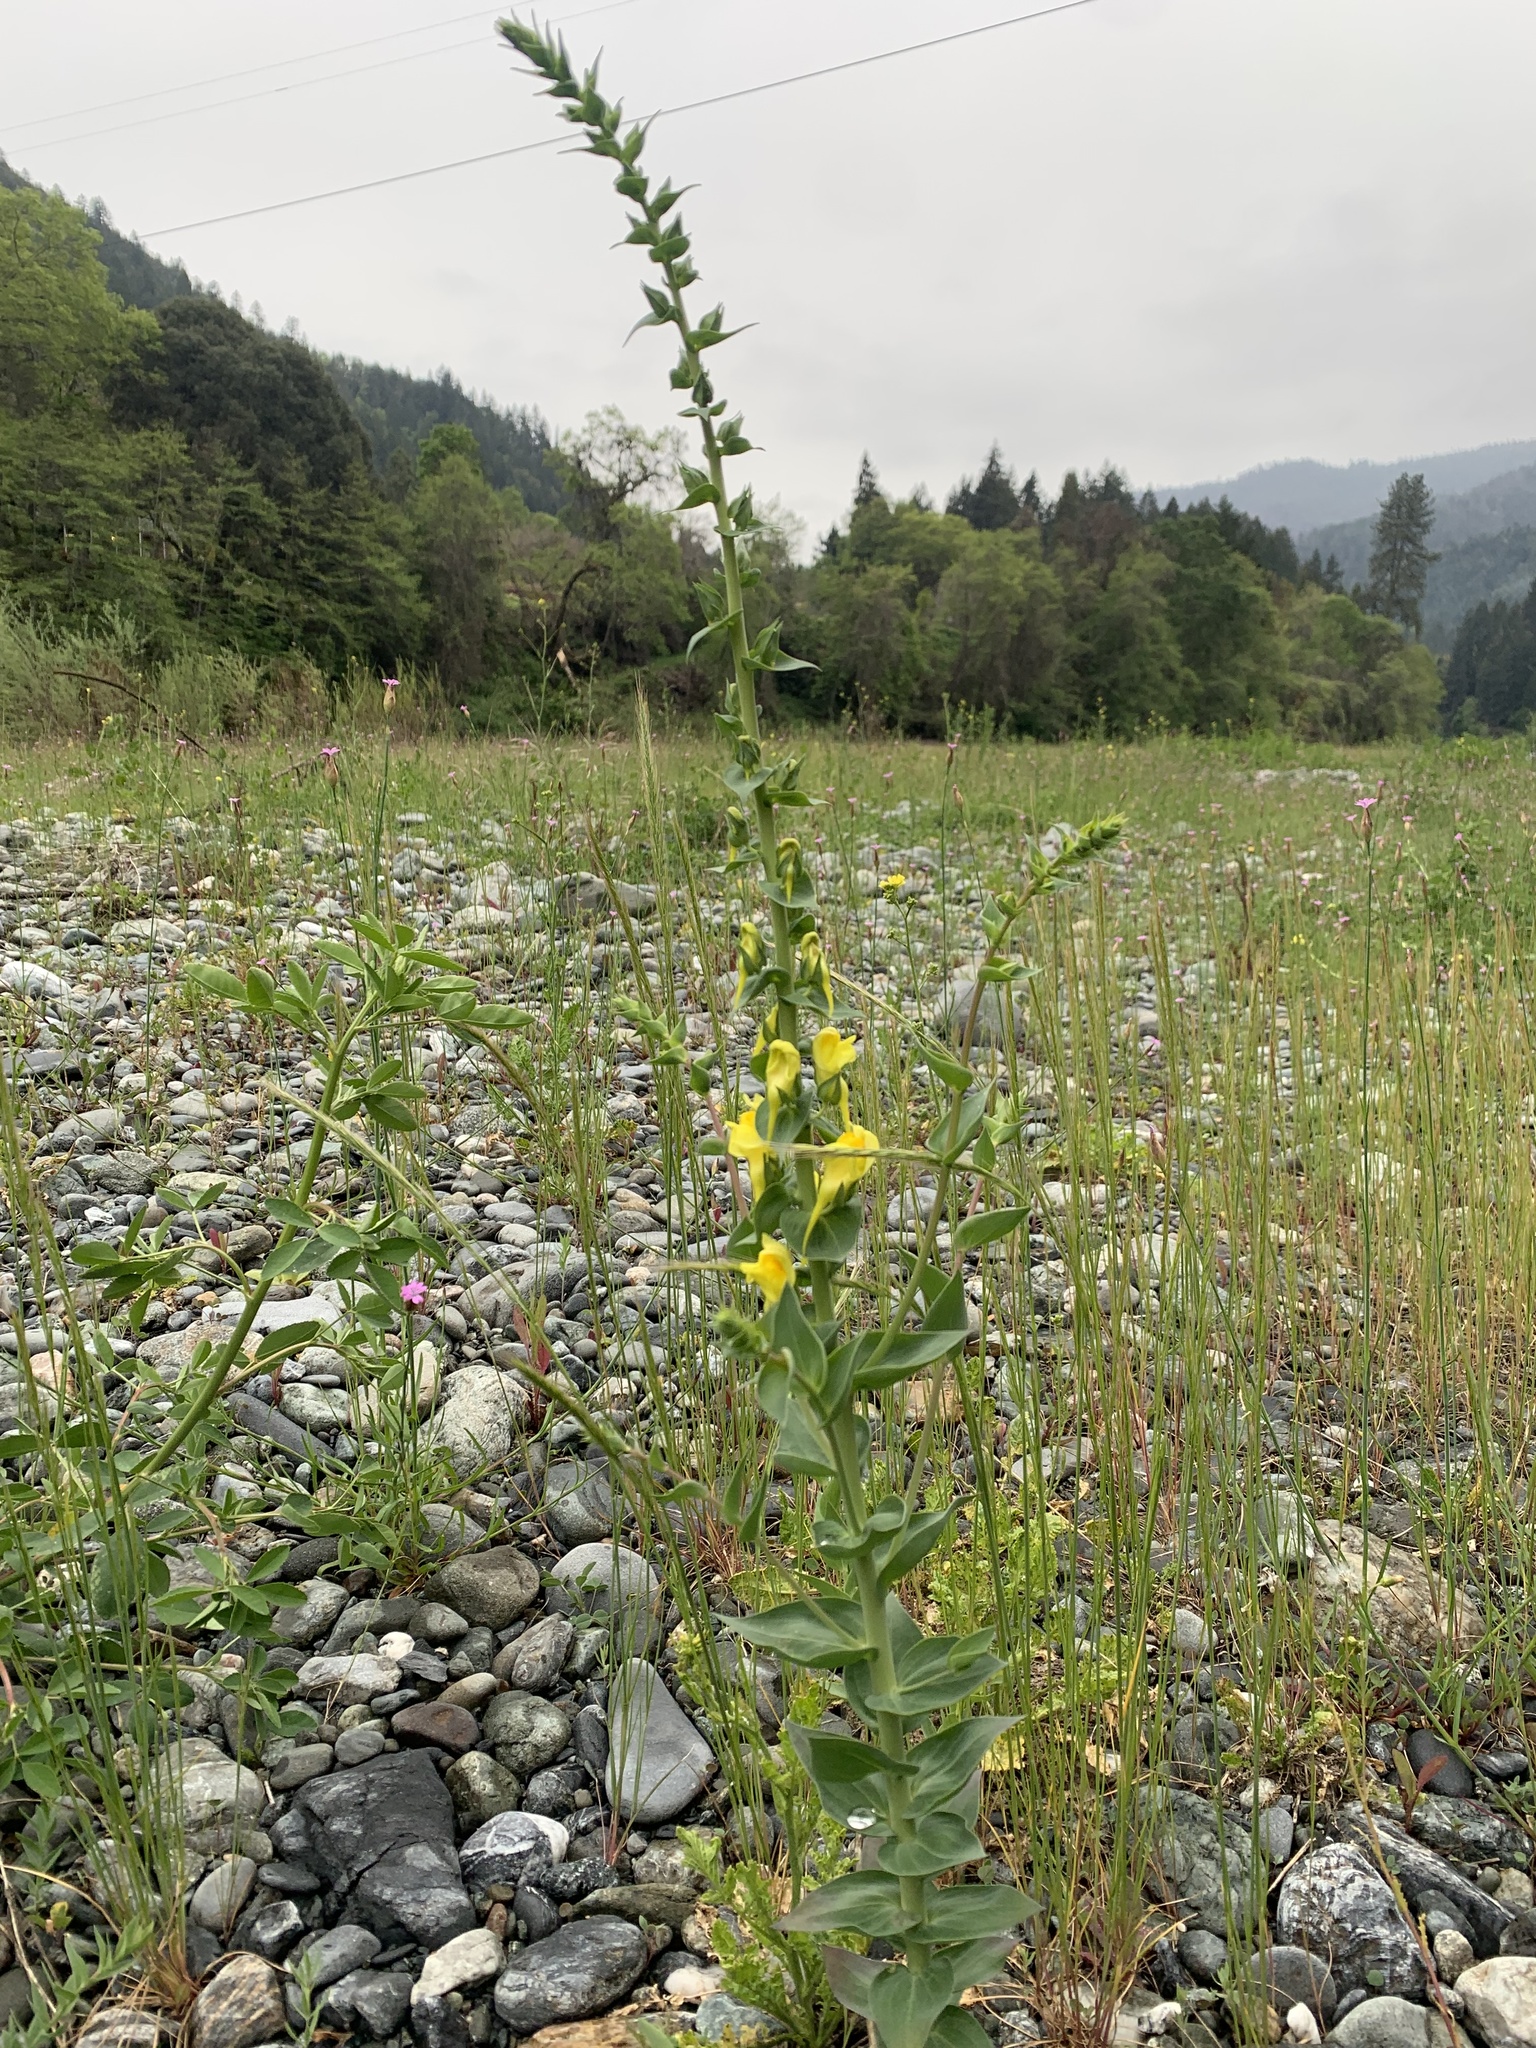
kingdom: Plantae
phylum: Tracheophyta
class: Magnoliopsida
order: Lamiales
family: Plantaginaceae
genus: Linaria
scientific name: Linaria dalmatica
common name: Dalmatian toadflax
